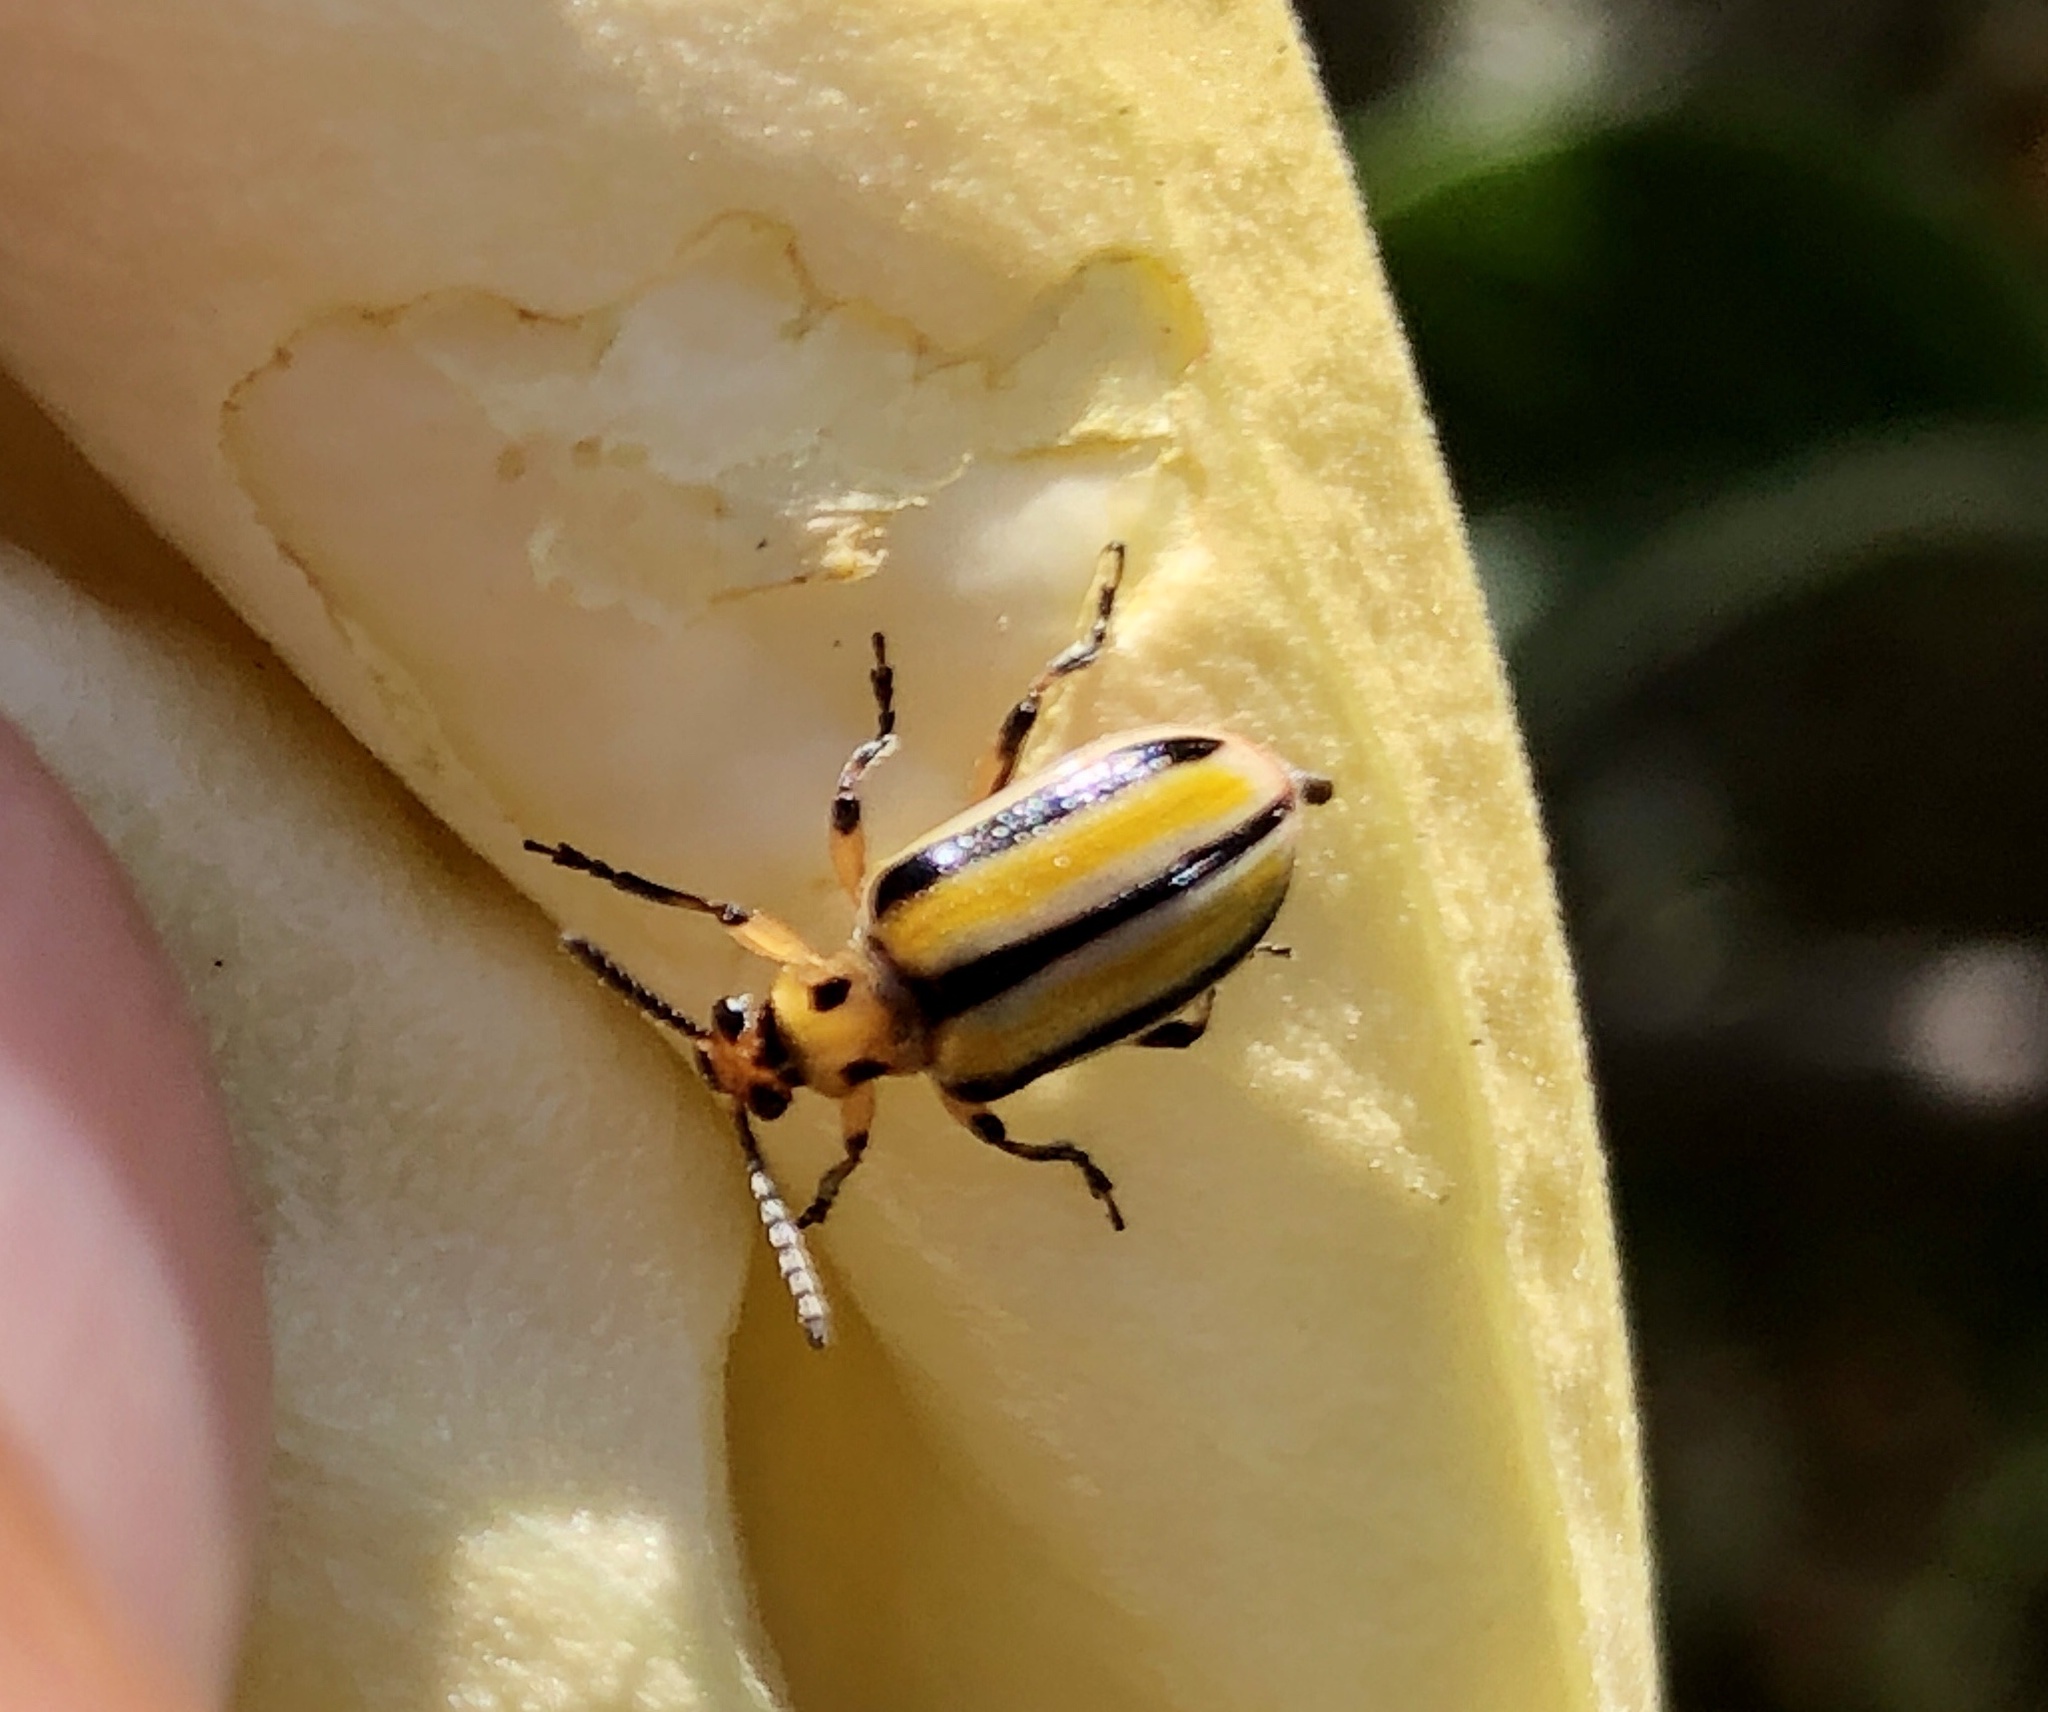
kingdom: Animalia
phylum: Arthropoda
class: Insecta
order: Coleoptera
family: Chrysomelidae
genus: Lema
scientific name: Lema daturaphila
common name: Leaf beetle
